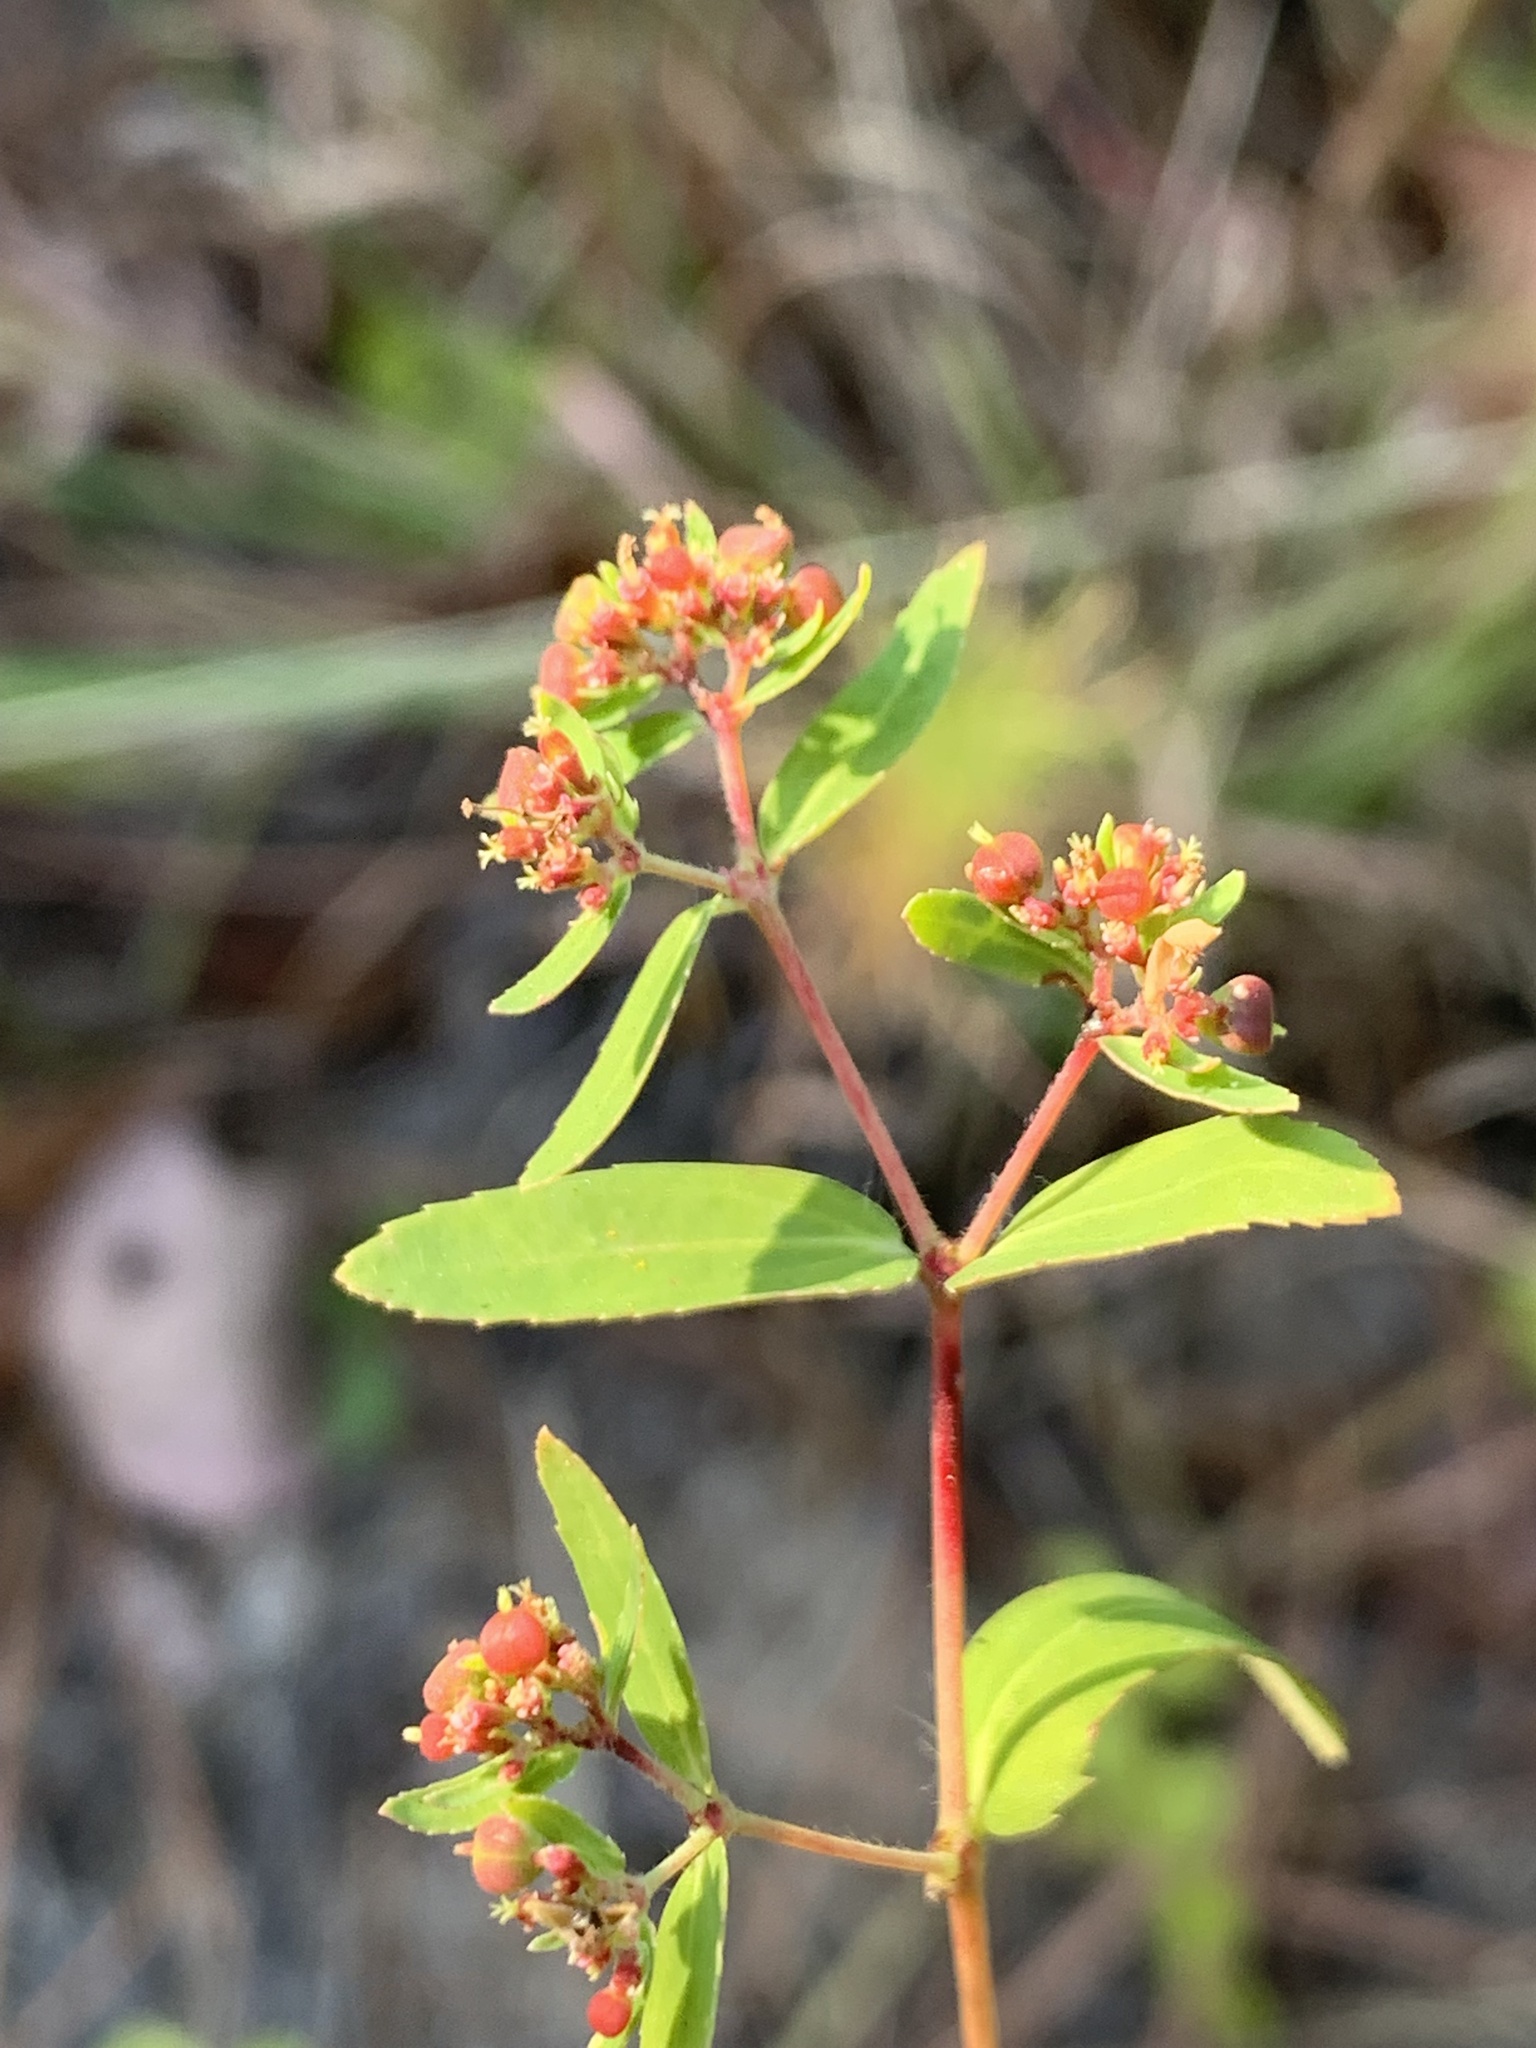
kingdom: Plantae
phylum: Tracheophyta
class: Magnoliopsida
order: Malpighiales
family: Euphorbiaceae
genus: Euphorbia
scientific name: Euphorbia nutans
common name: Eyebane
